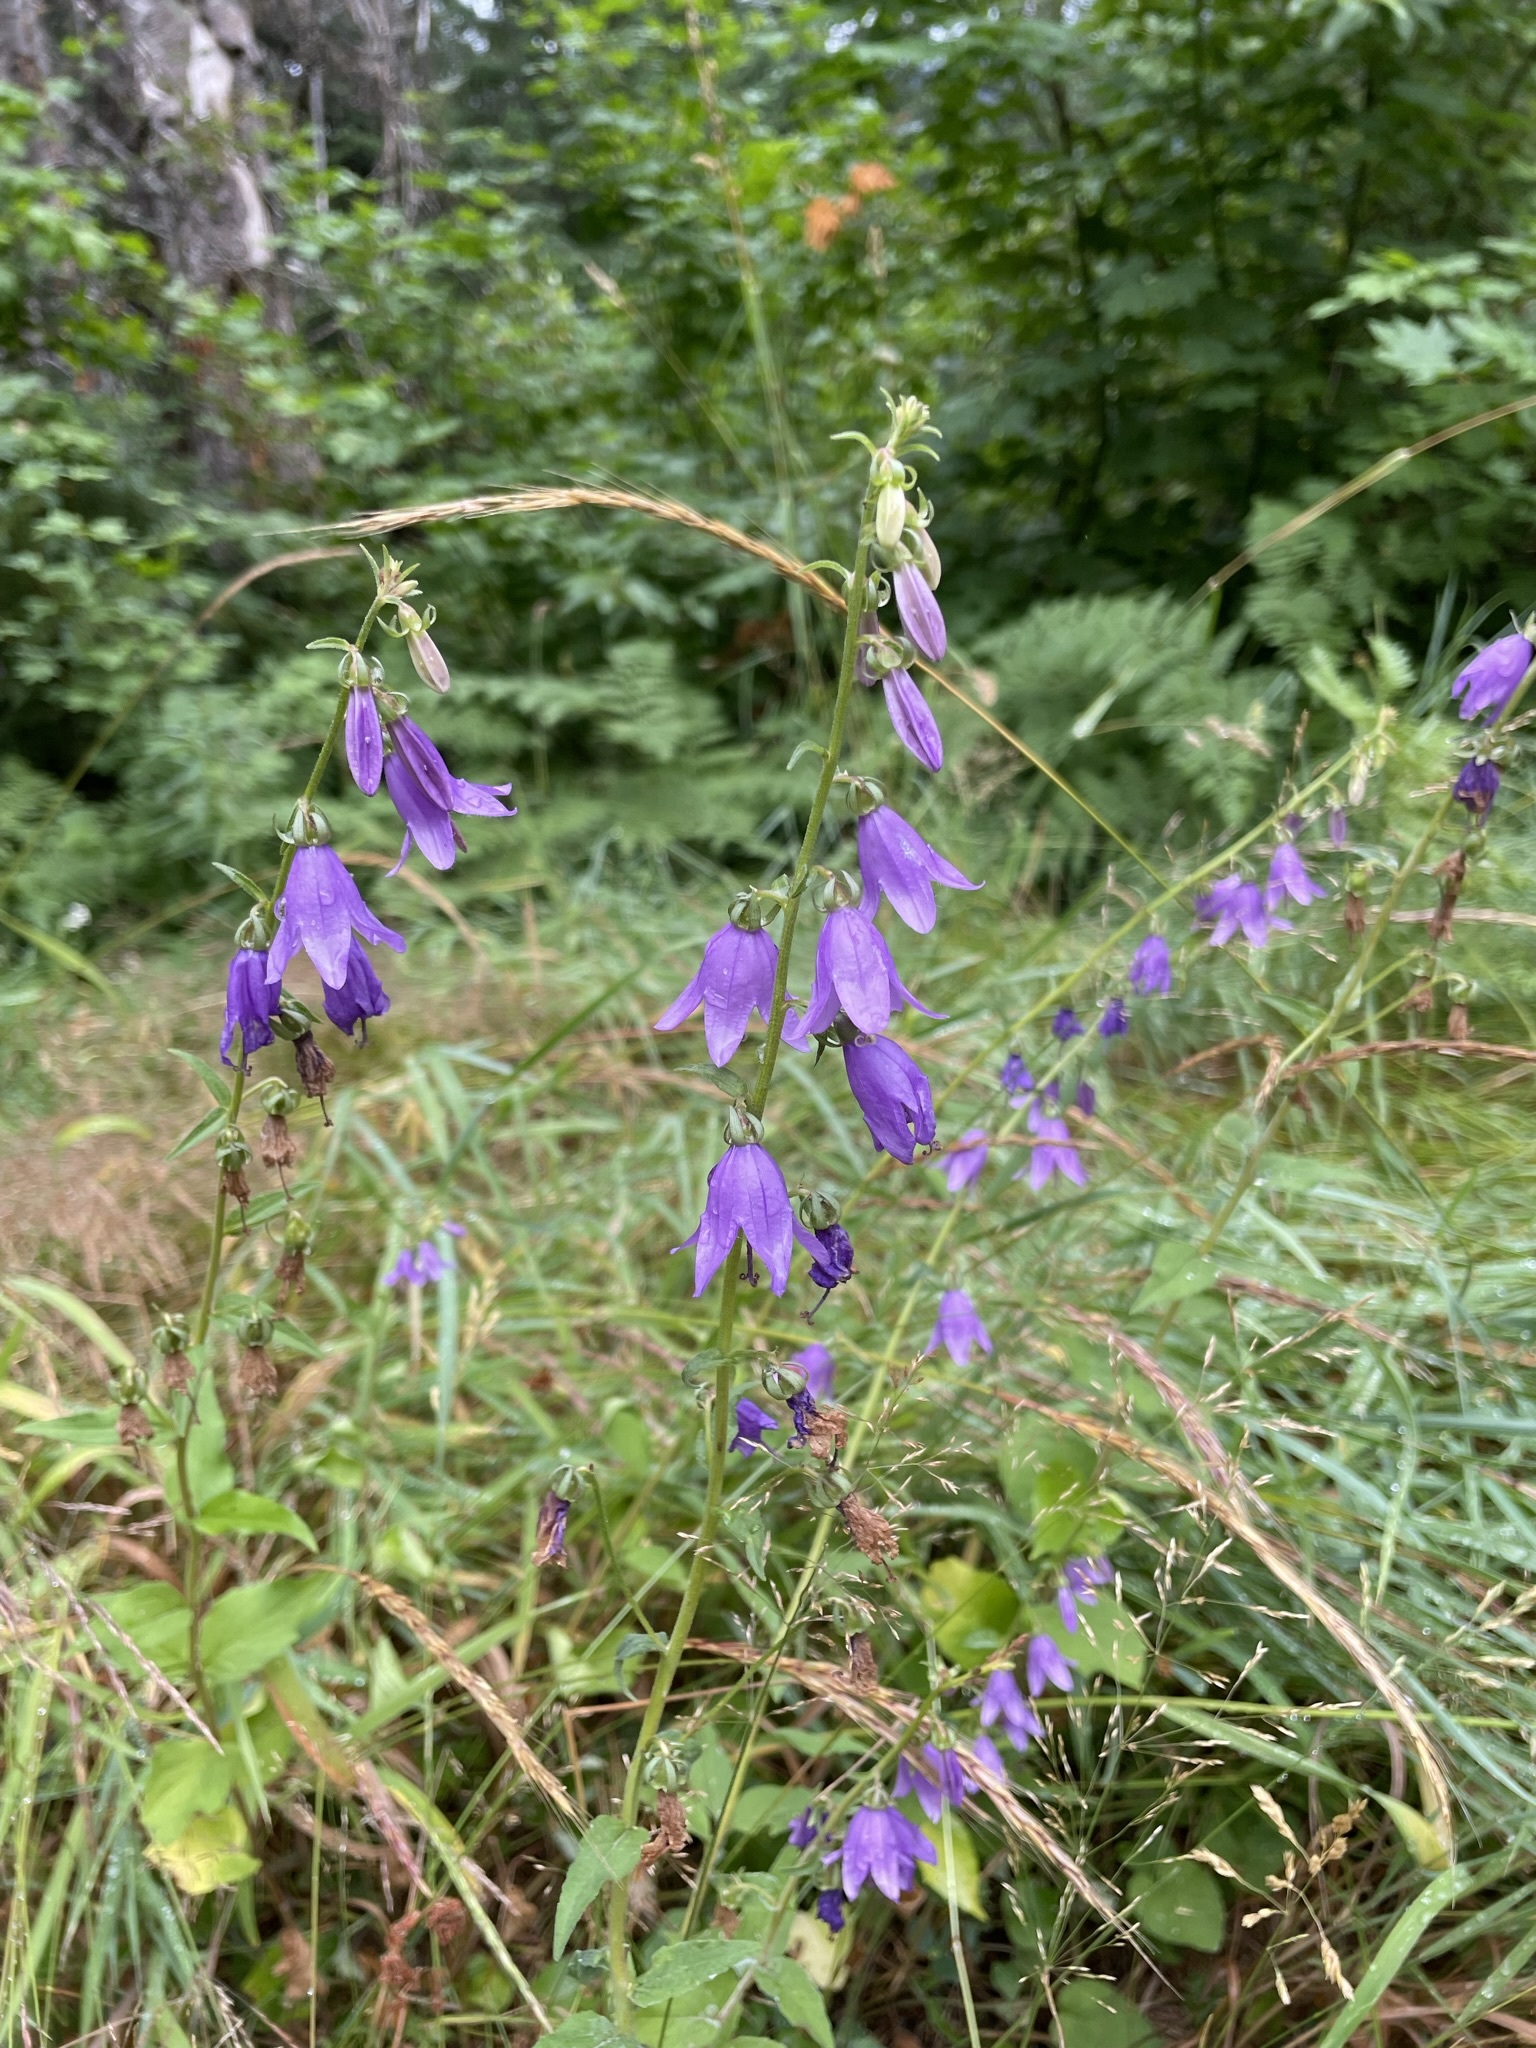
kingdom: Plantae
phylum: Tracheophyta
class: Magnoliopsida
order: Asterales
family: Campanulaceae
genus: Campanula
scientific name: Campanula rapunculoides
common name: Creeping bellflower
